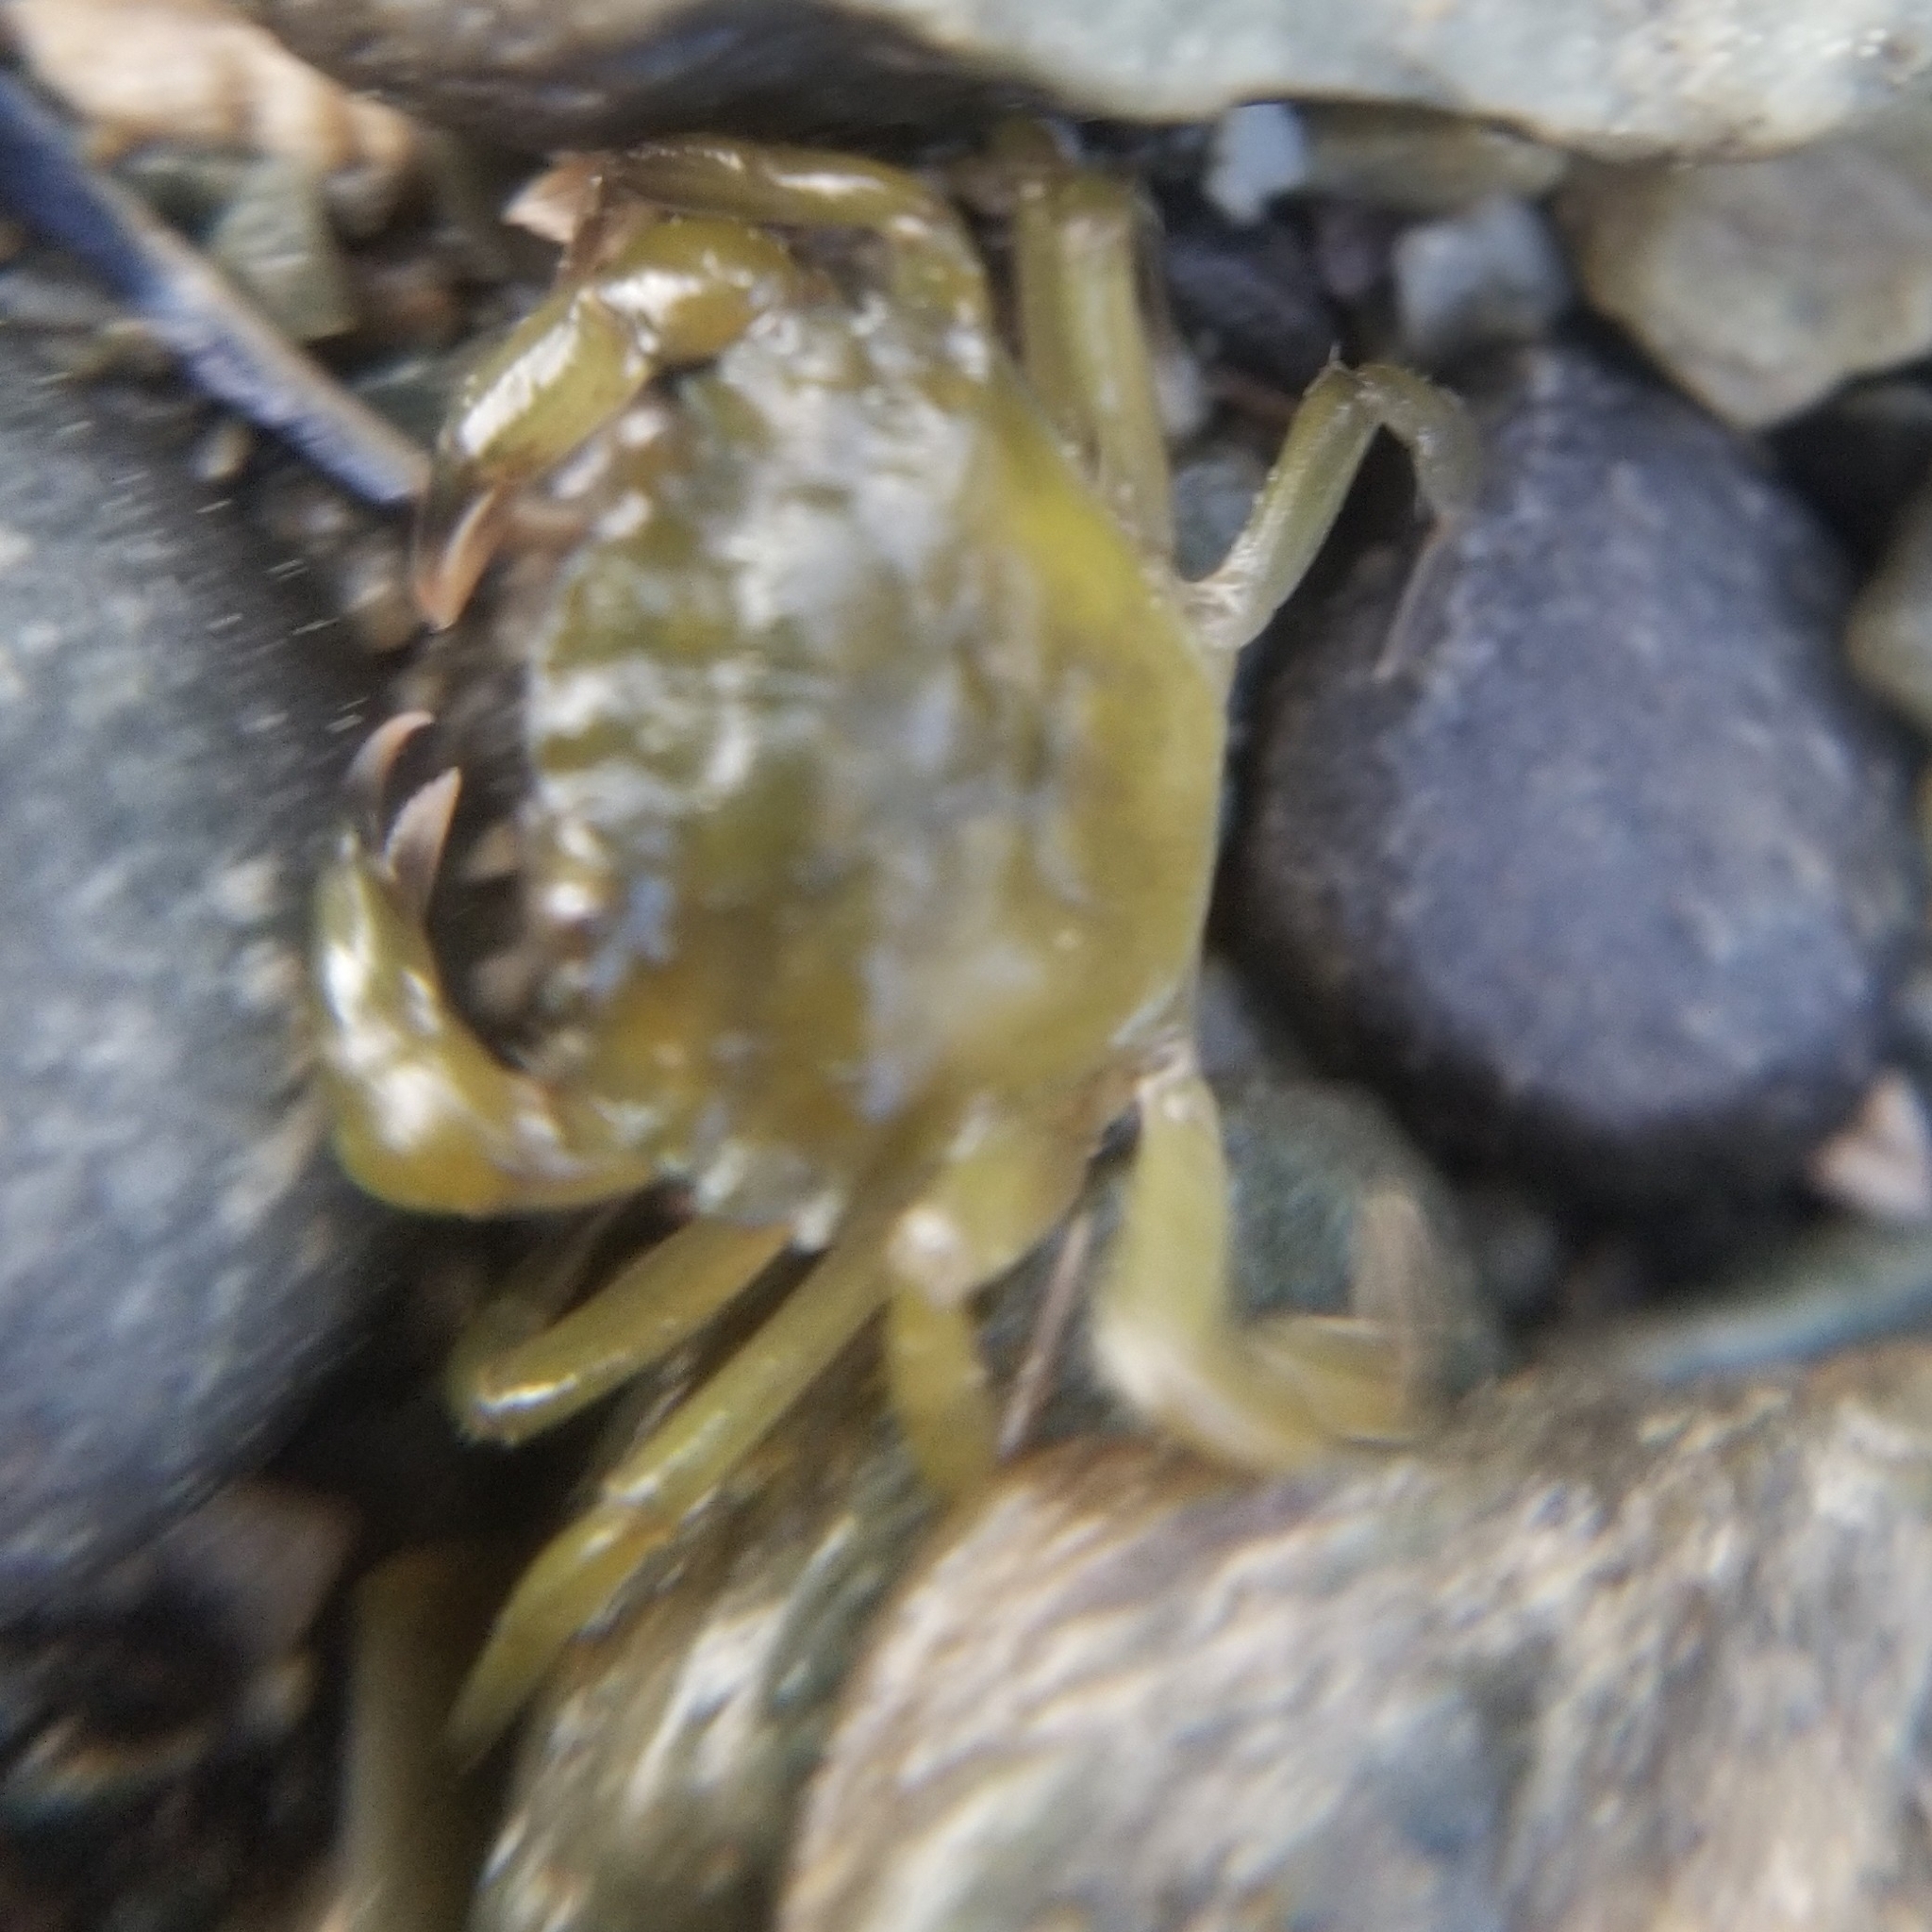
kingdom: Animalia
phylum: Arthropoda
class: Malacostraca
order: Decapoda
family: Carcinidae
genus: Carcinus
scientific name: Carcinus maenas
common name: European green crab
